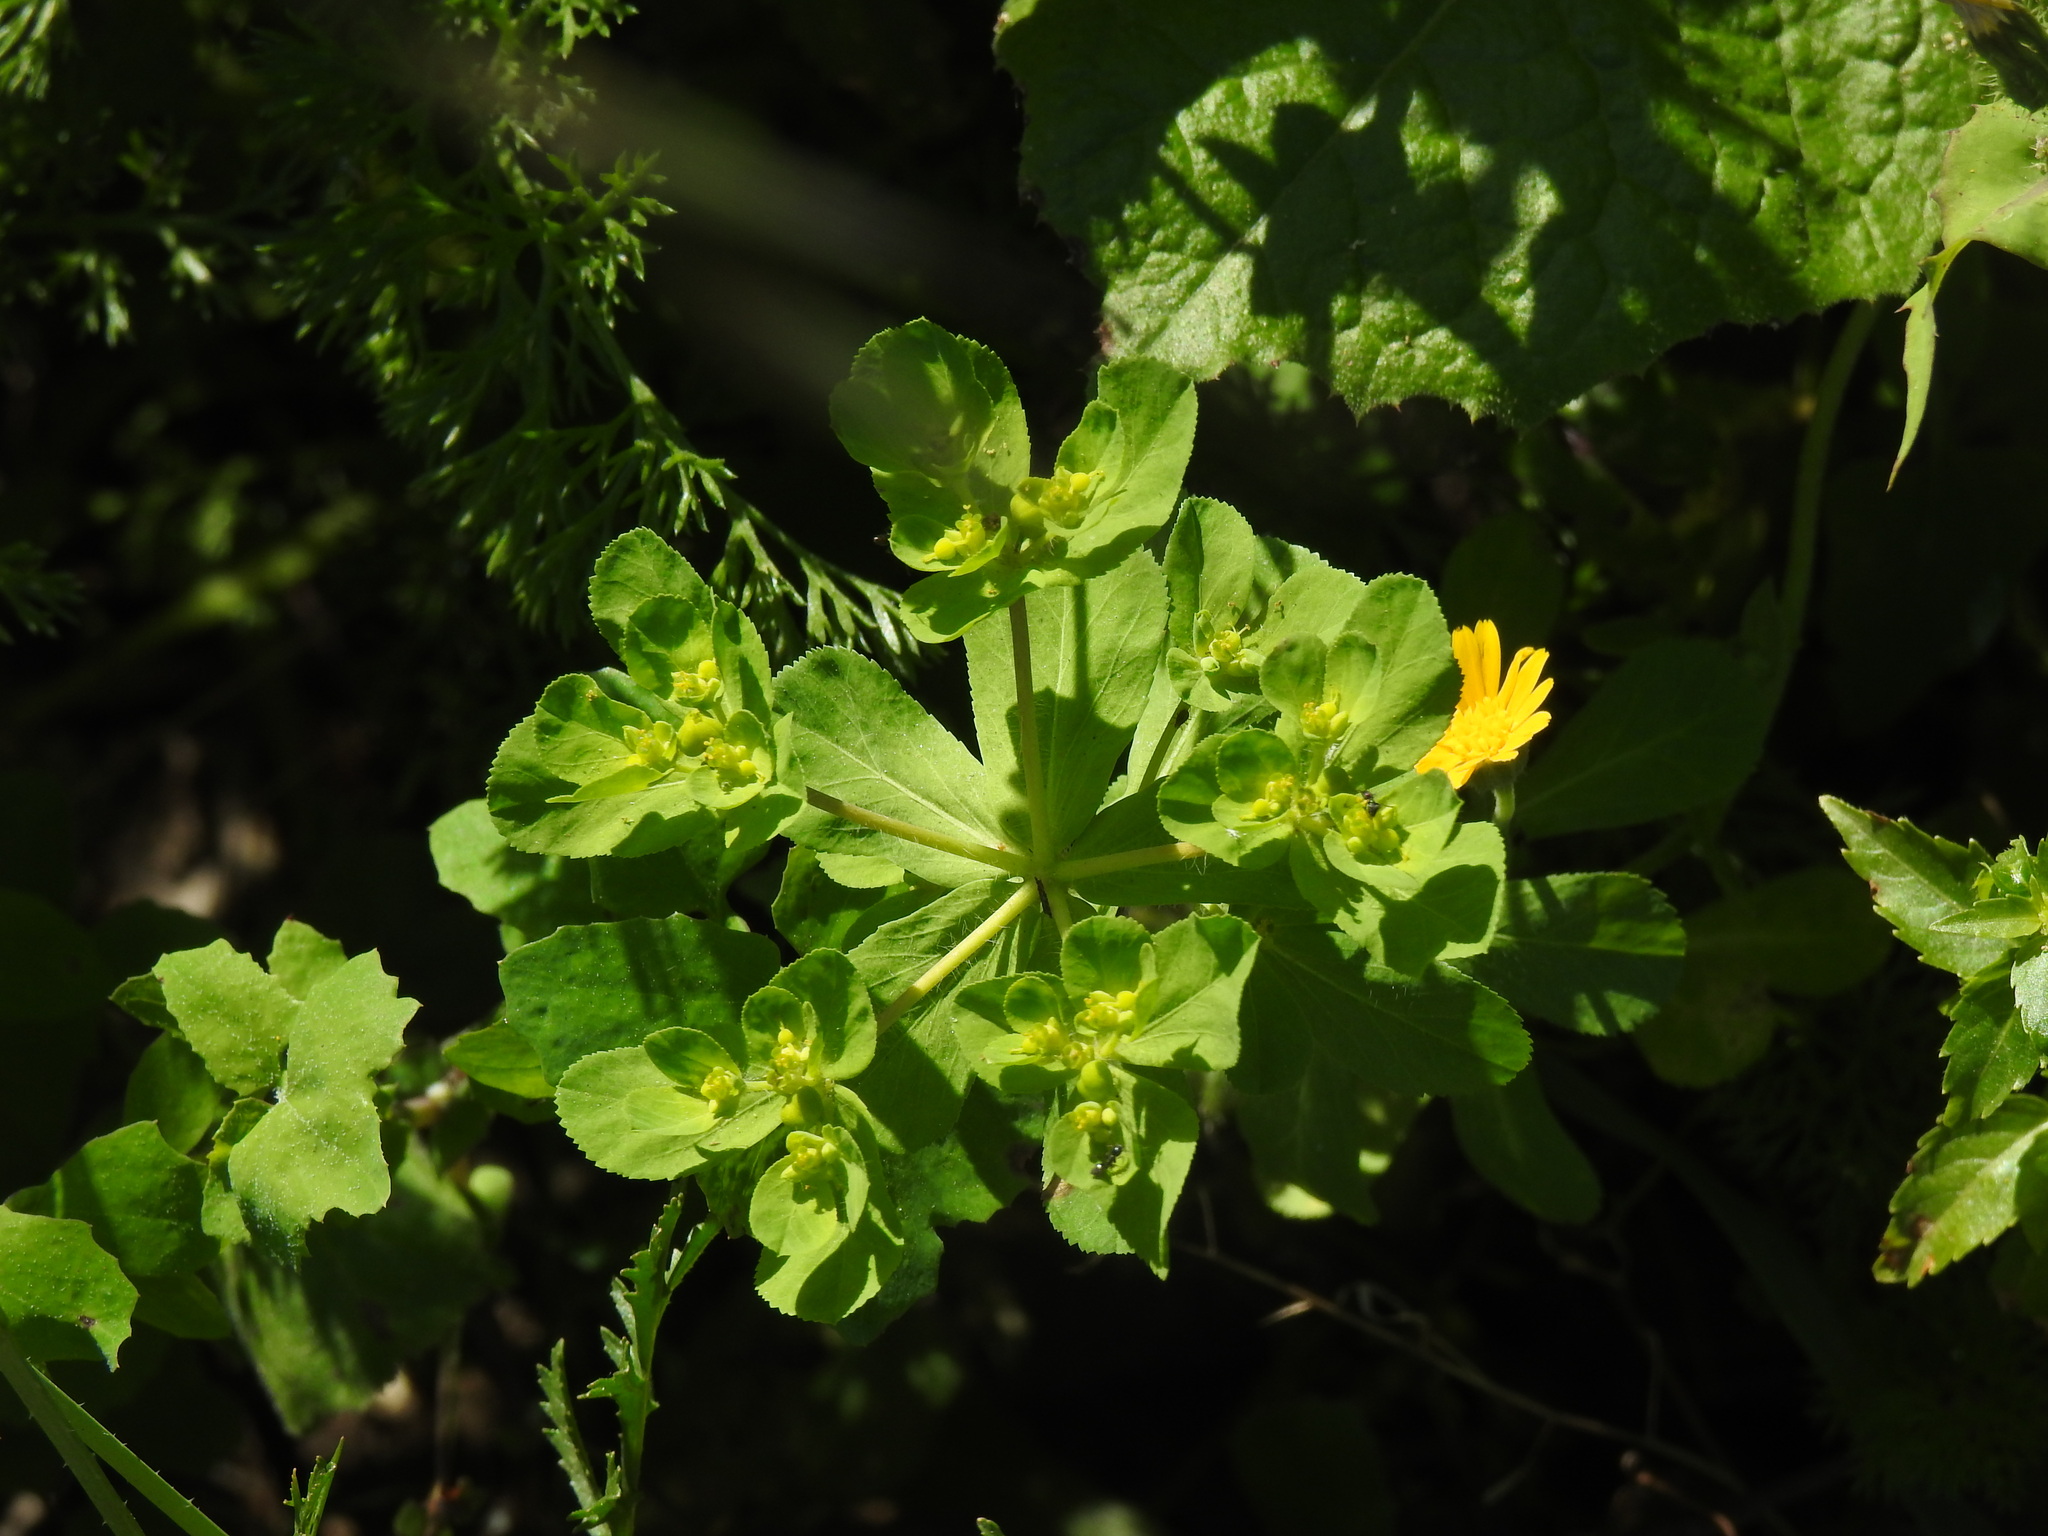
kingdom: Plantae
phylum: Tracheophyta
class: Magnoliopsida
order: Malpighiales
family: Euphorbiaceae
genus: Euphorbia
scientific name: Euphorbia helioscopia
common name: Sun spurge
